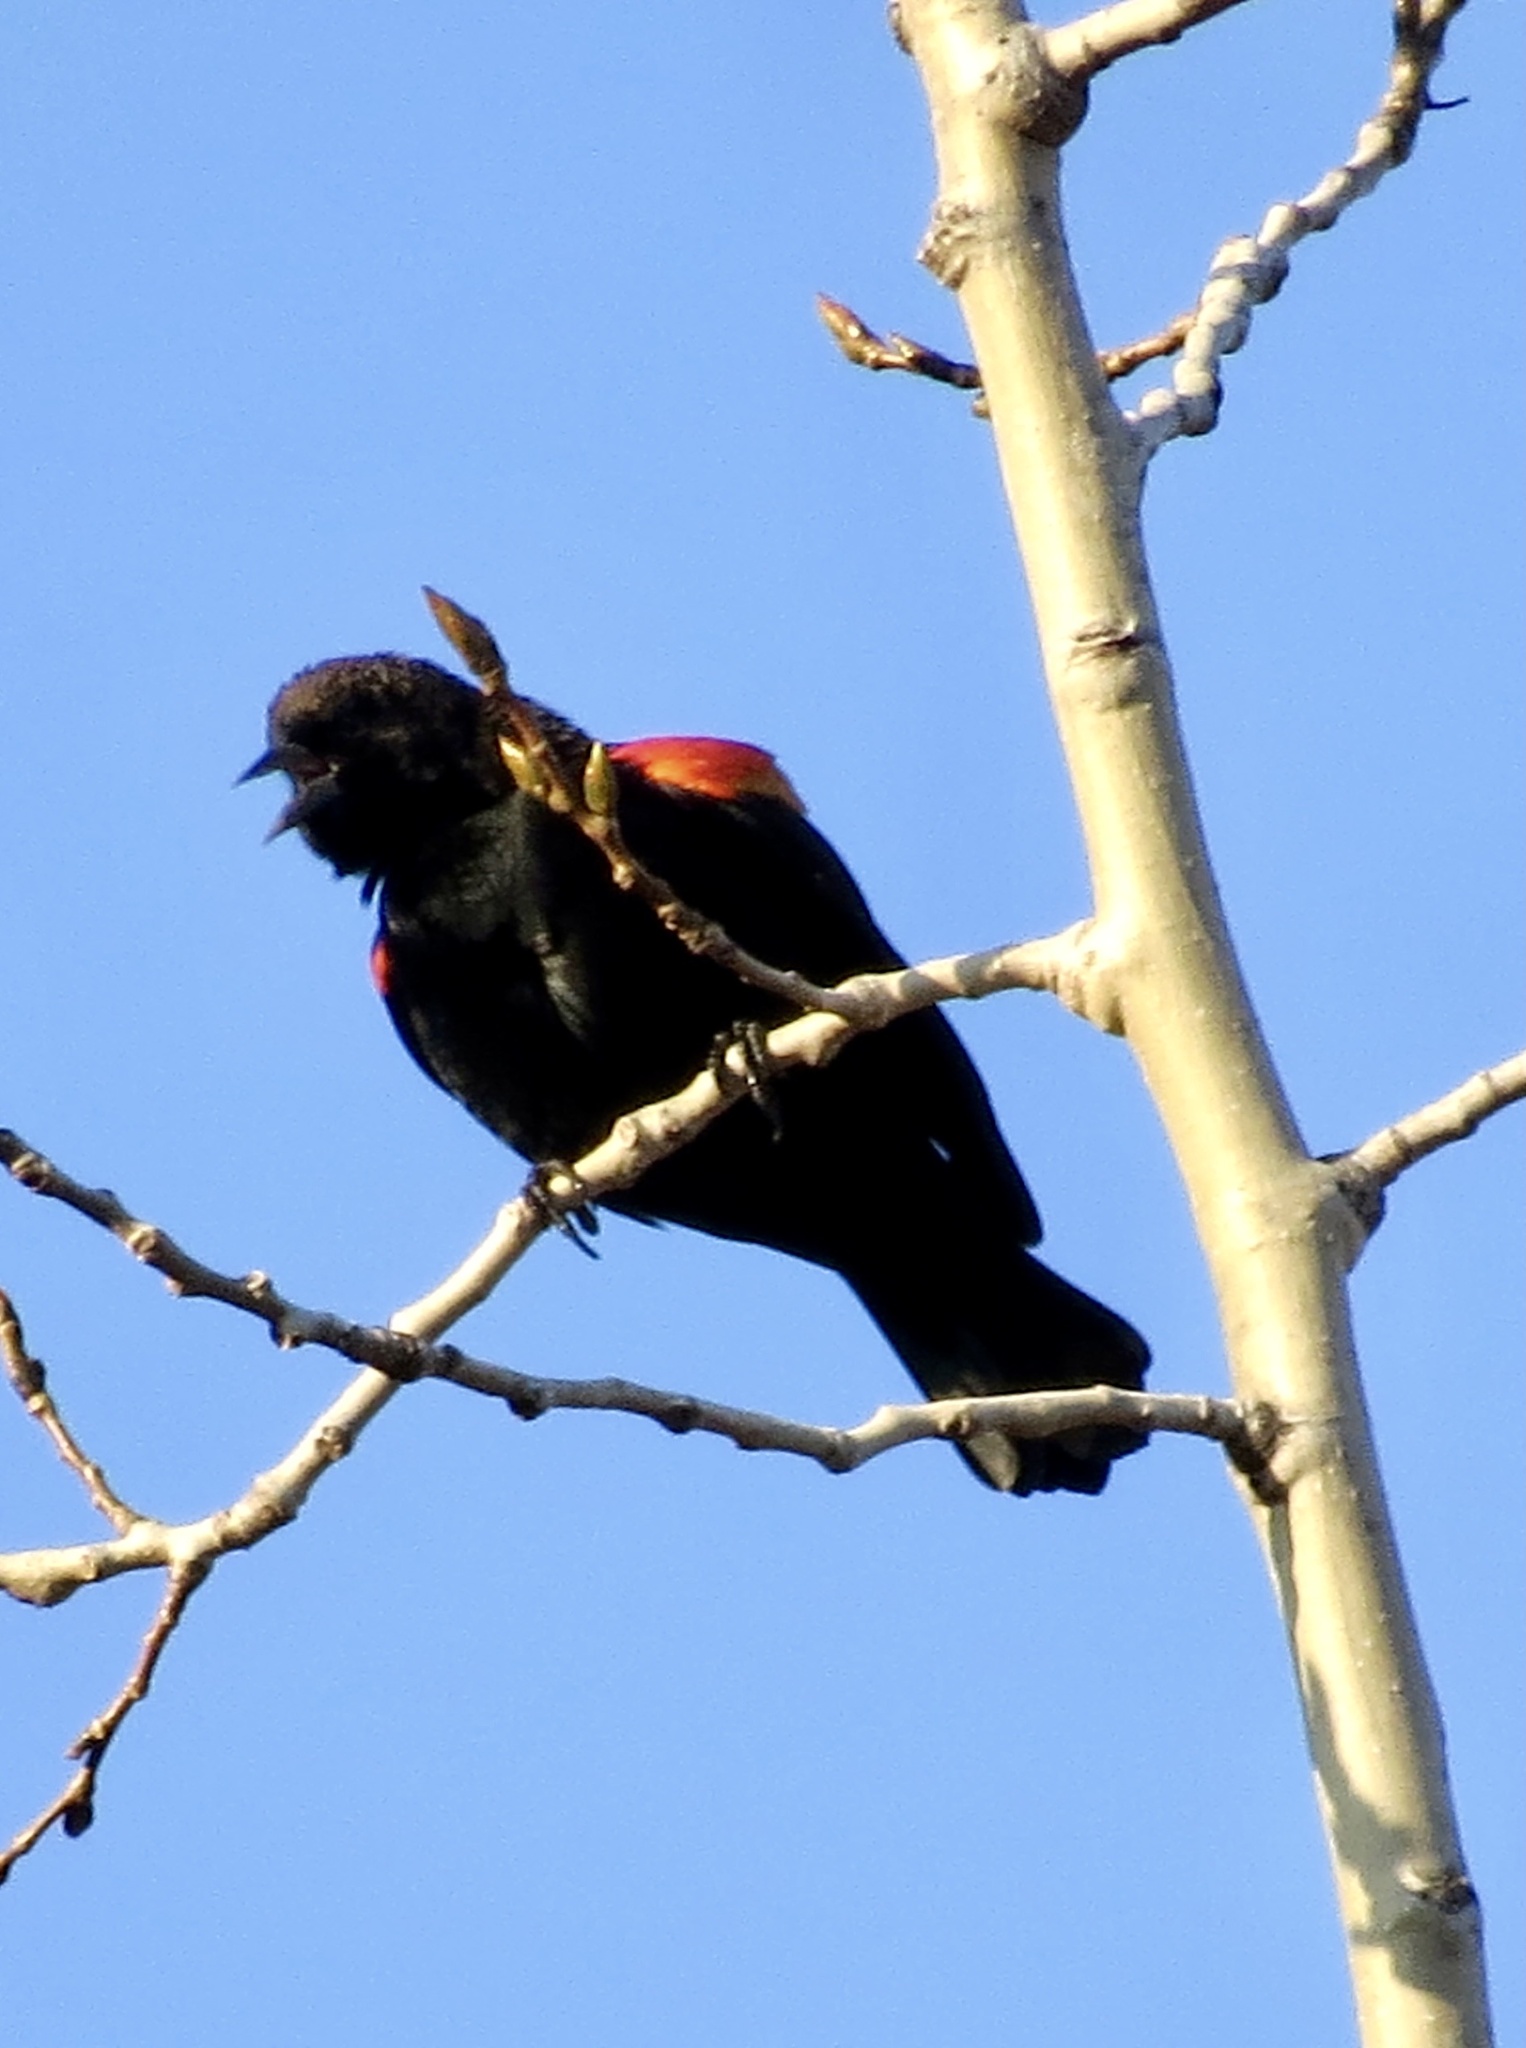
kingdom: Animalia
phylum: Chordata
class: Aves
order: Passeriformes
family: Icteridae
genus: Agelaius
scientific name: Agelaius phoeniceus
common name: Red-winged blackbird
